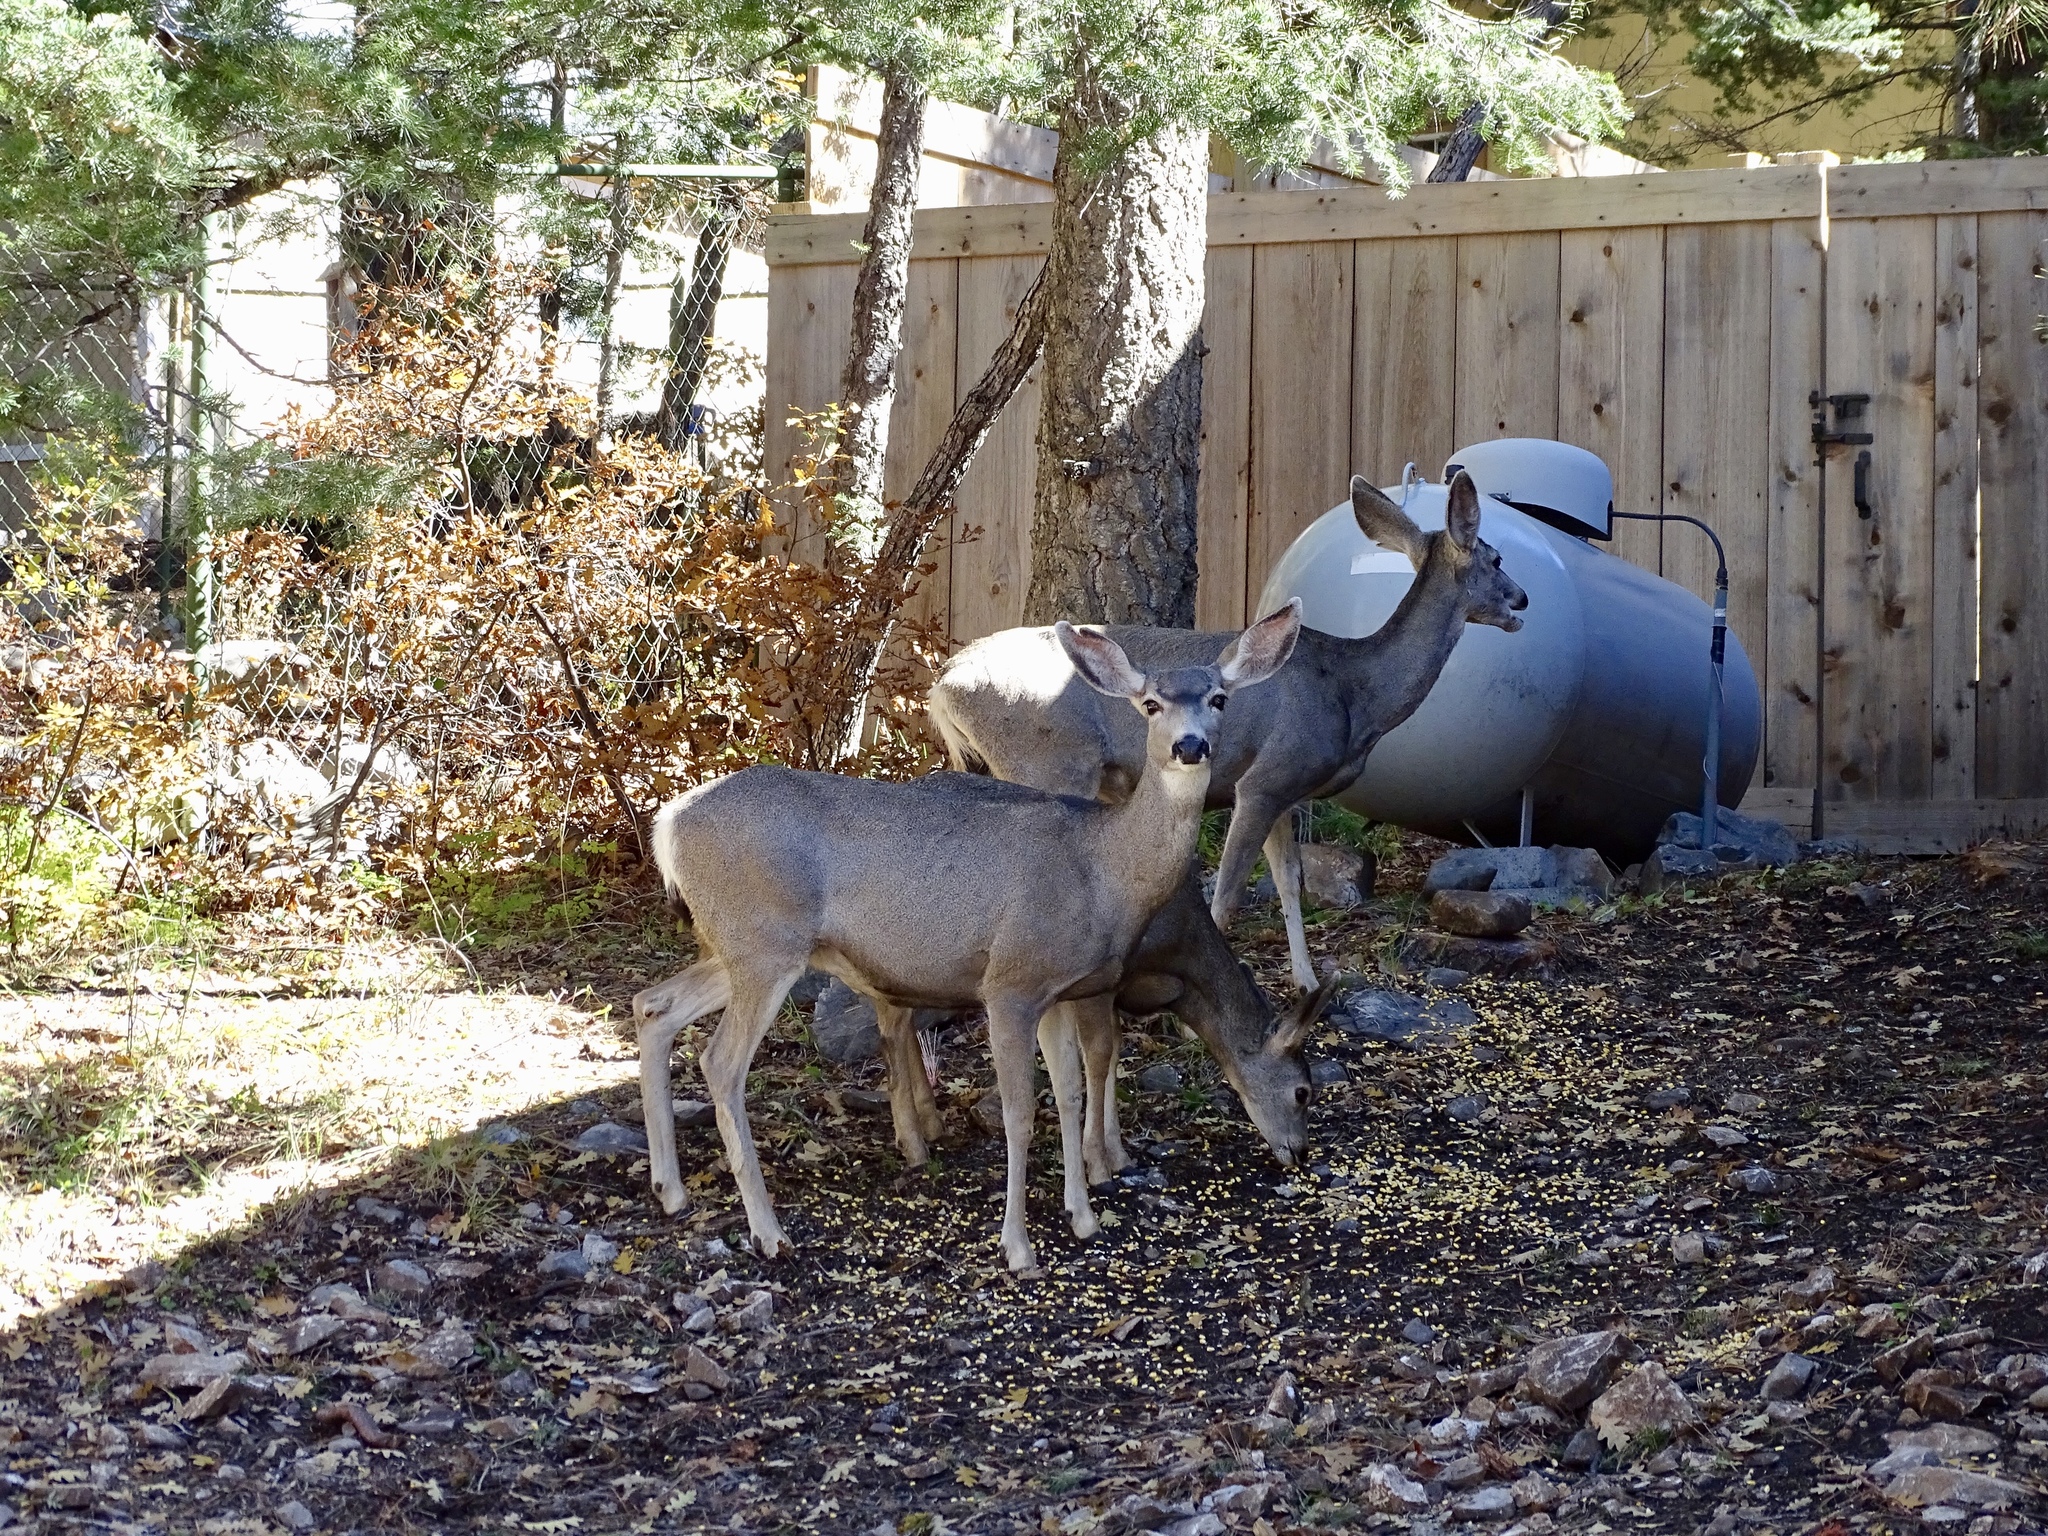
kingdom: Animalia
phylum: Chordata
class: Mammalia
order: Artiodactyla
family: Cervidae
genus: Odocoileus
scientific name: Odocoileus hemionus
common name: Mule deer
